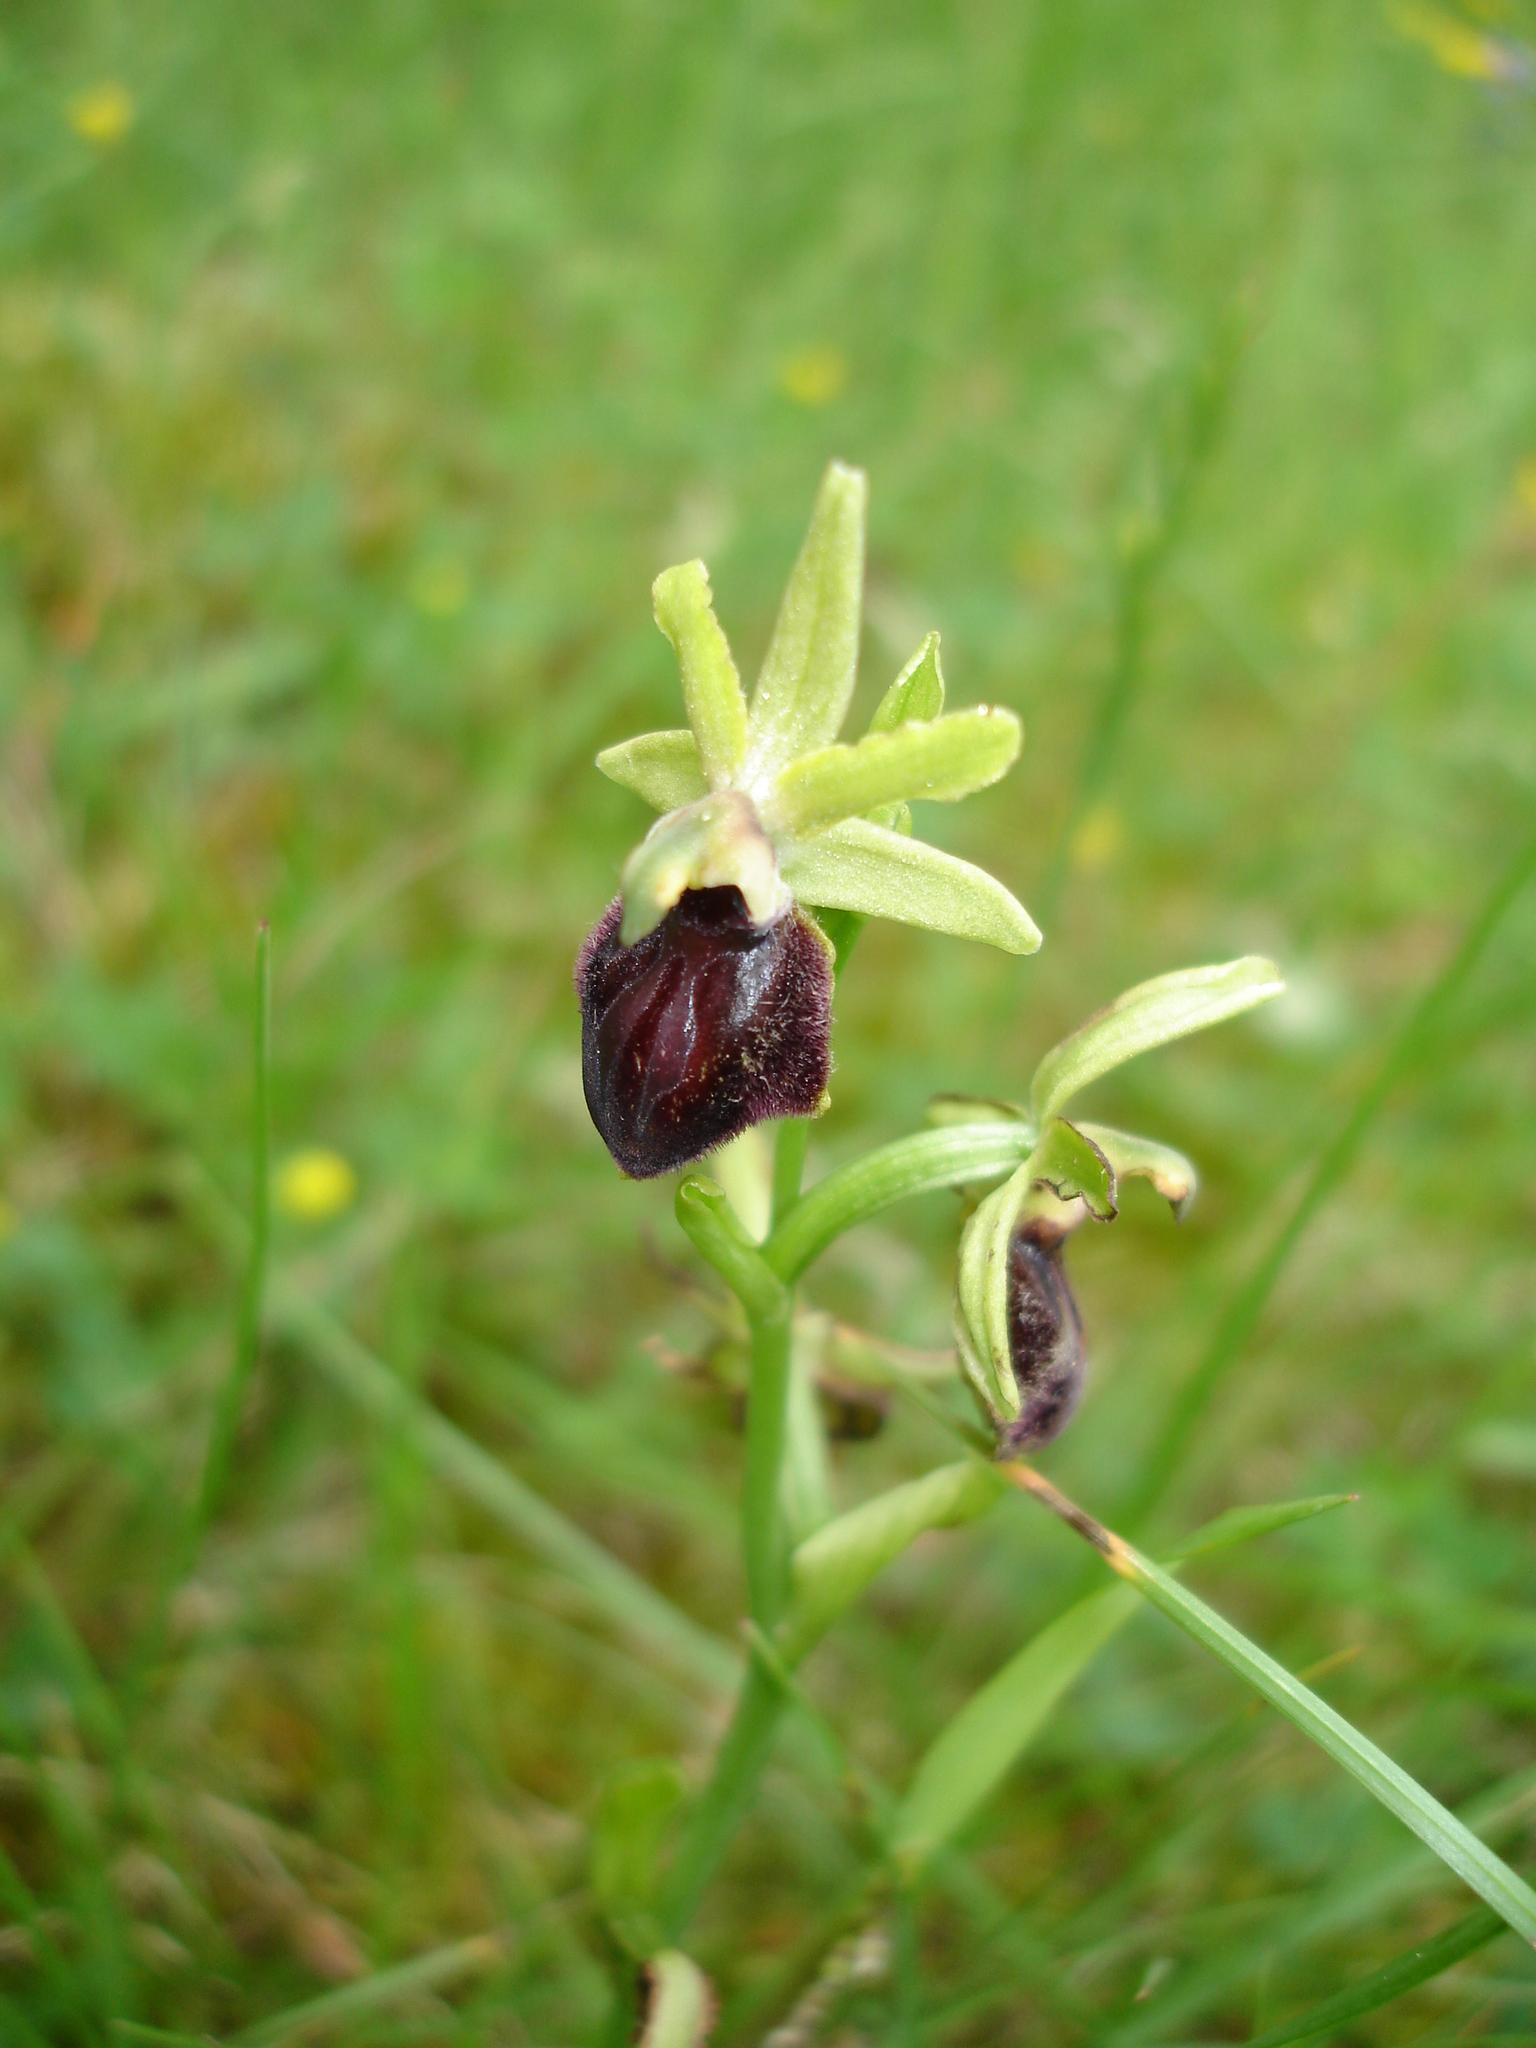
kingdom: Plantae
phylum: Tracheophyta
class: Liliopsida
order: Asparagales
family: Orchidaceae
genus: Ophrys
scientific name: Ophrys sphegodes
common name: Early spider-orchid
